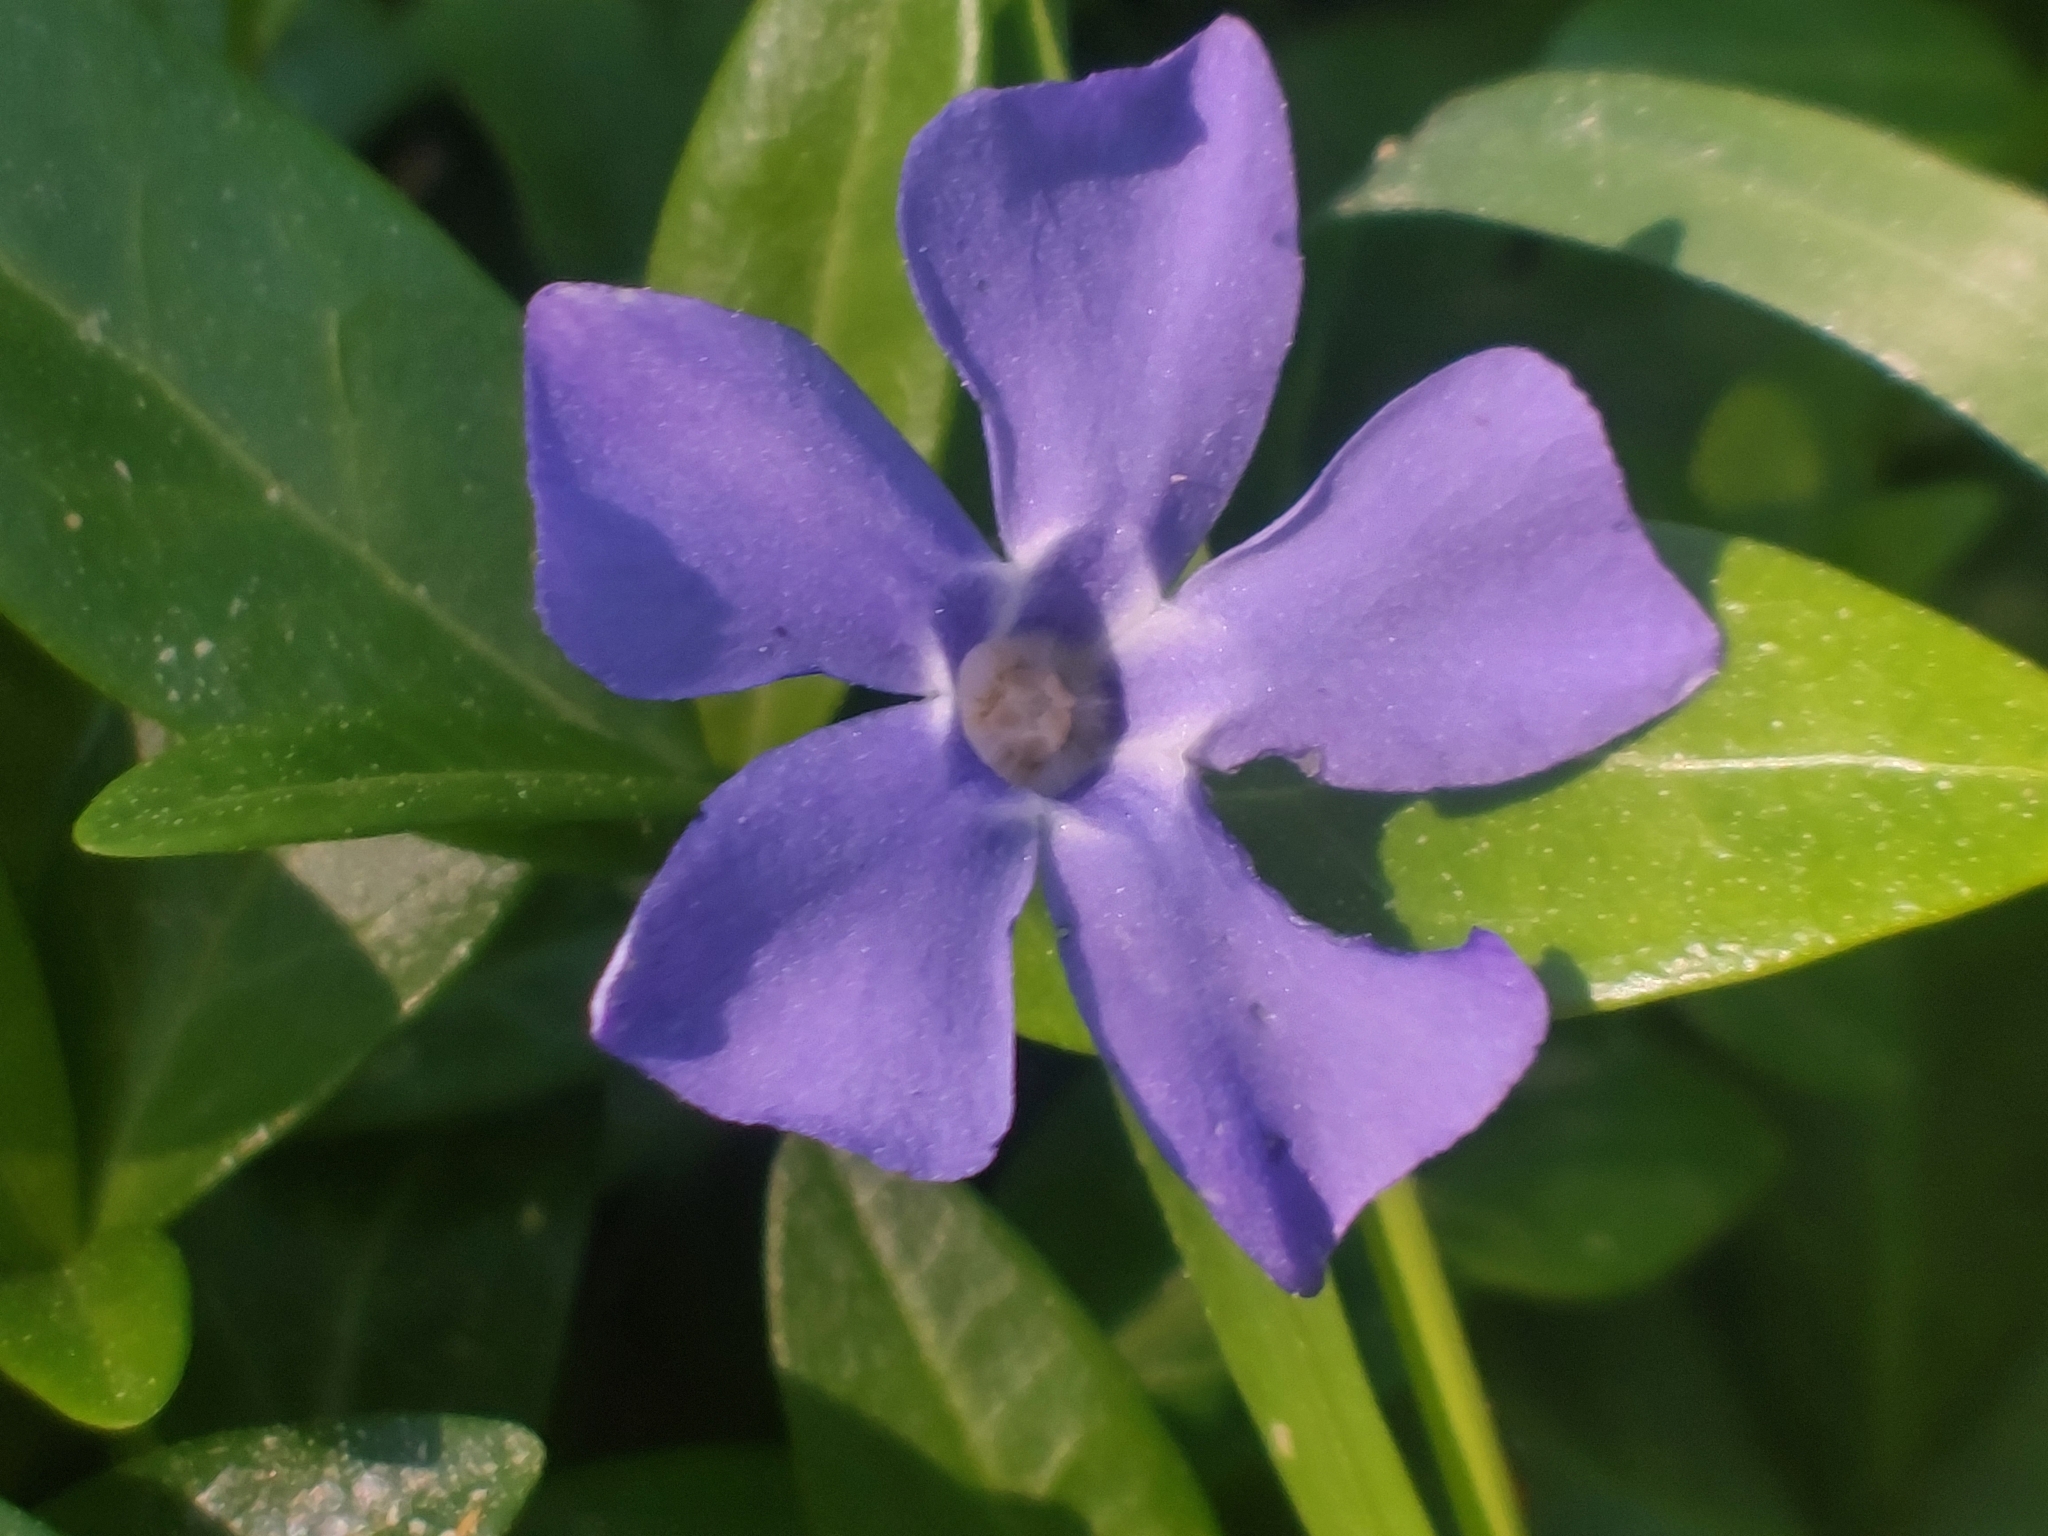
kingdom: Plantae
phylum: Tracheophyta
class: Magnoliopsida
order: Gentianales
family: Apocynaceae
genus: Vinca
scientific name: Vinca minor
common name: Lesser periwinkle
